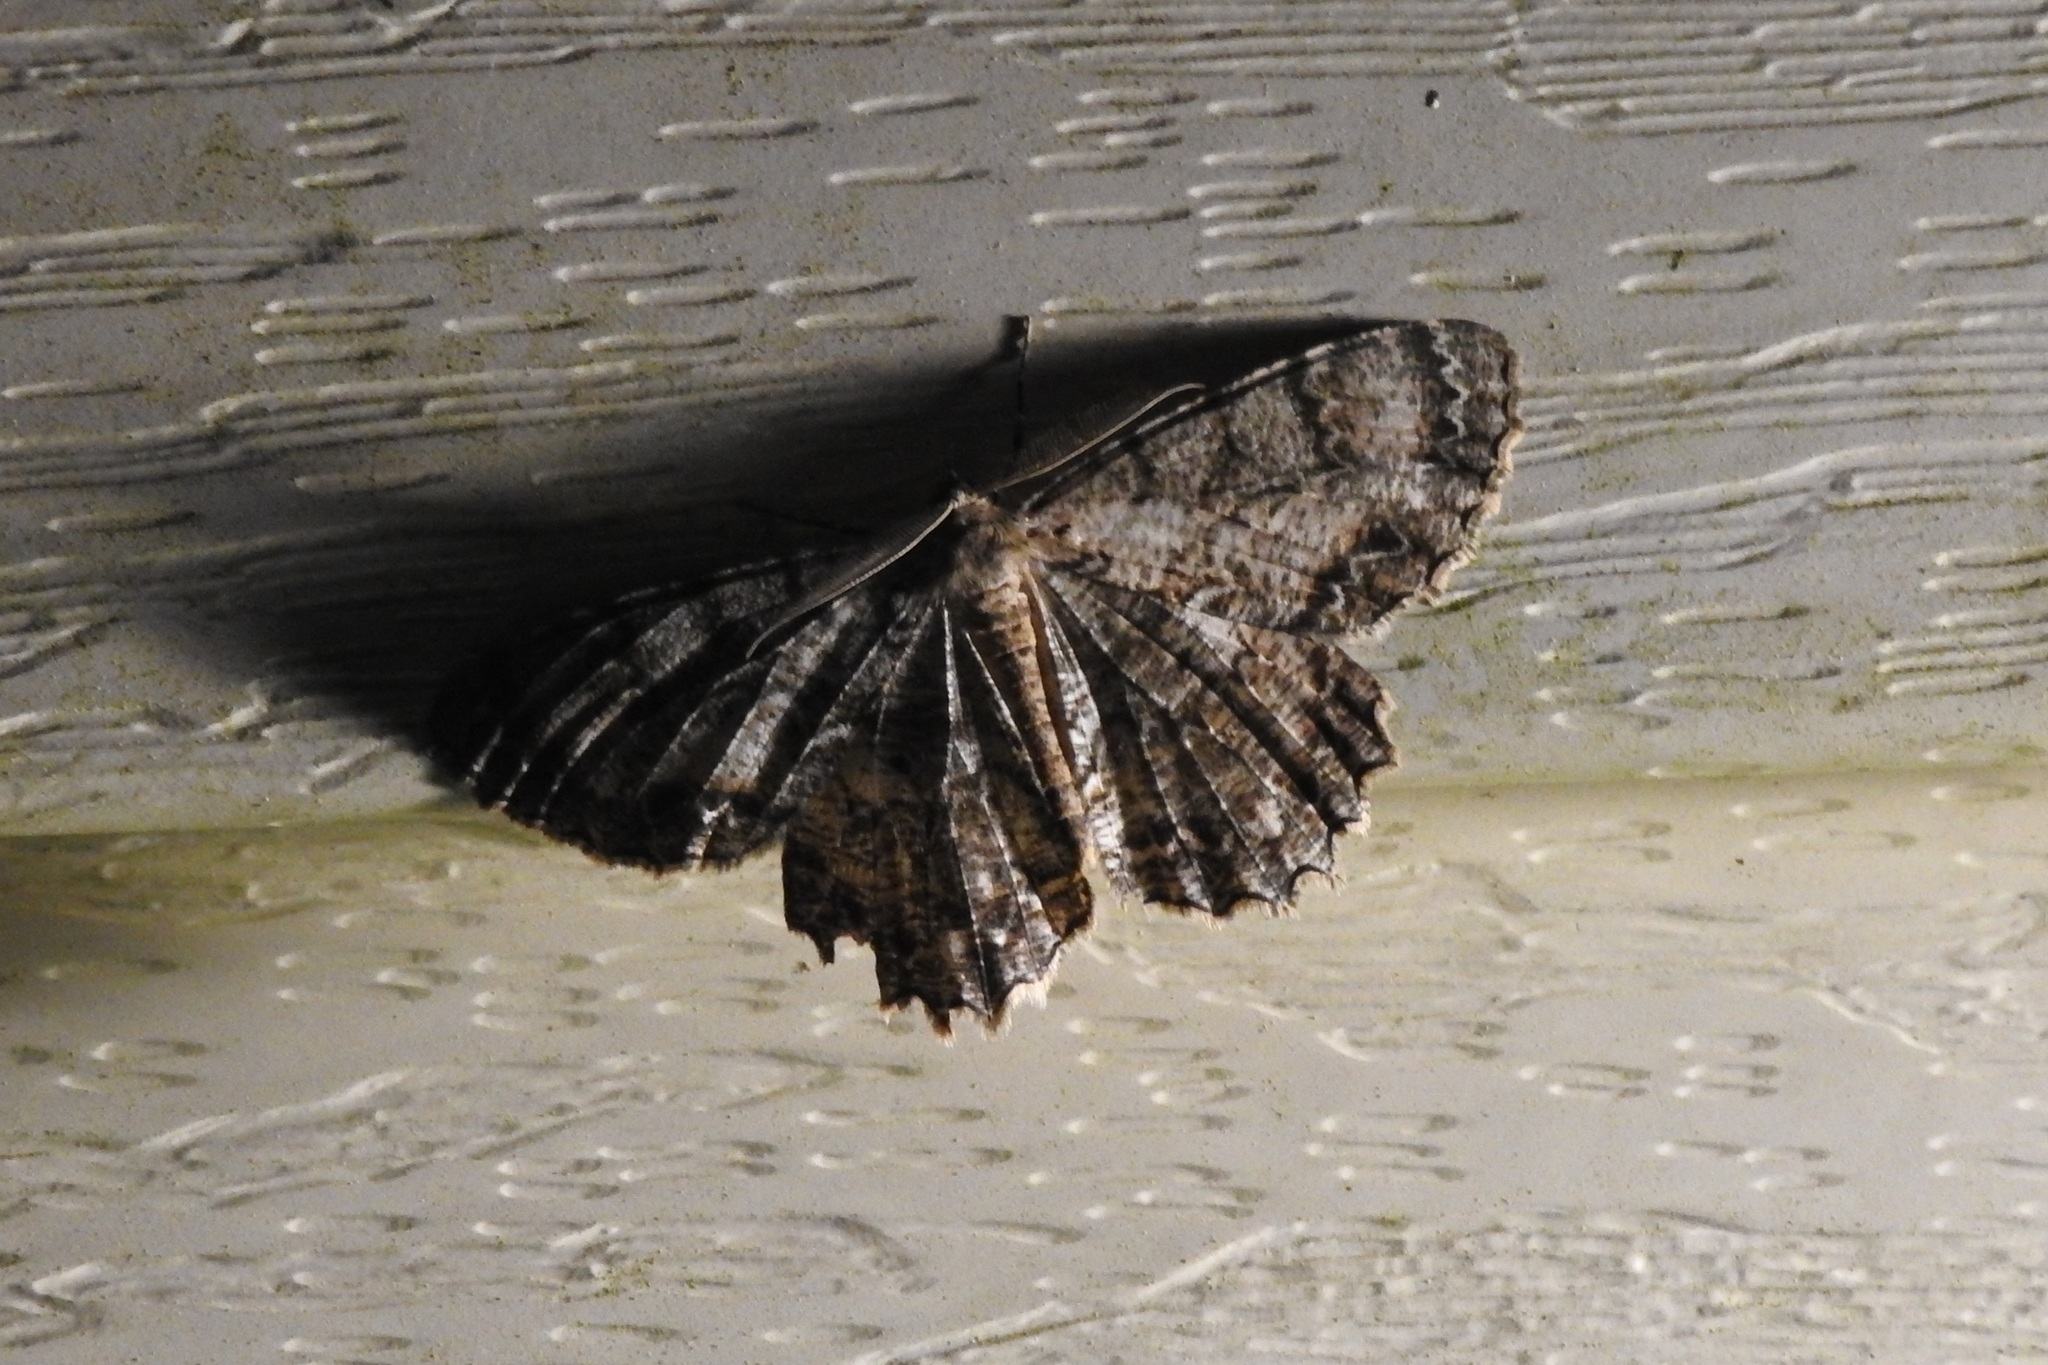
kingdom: Animalia
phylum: Arthropoda
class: Insecta
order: Lepidoptera
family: Geometridae
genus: Epimecis
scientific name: Epimecis hortaria
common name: Tulip-tree beauty
